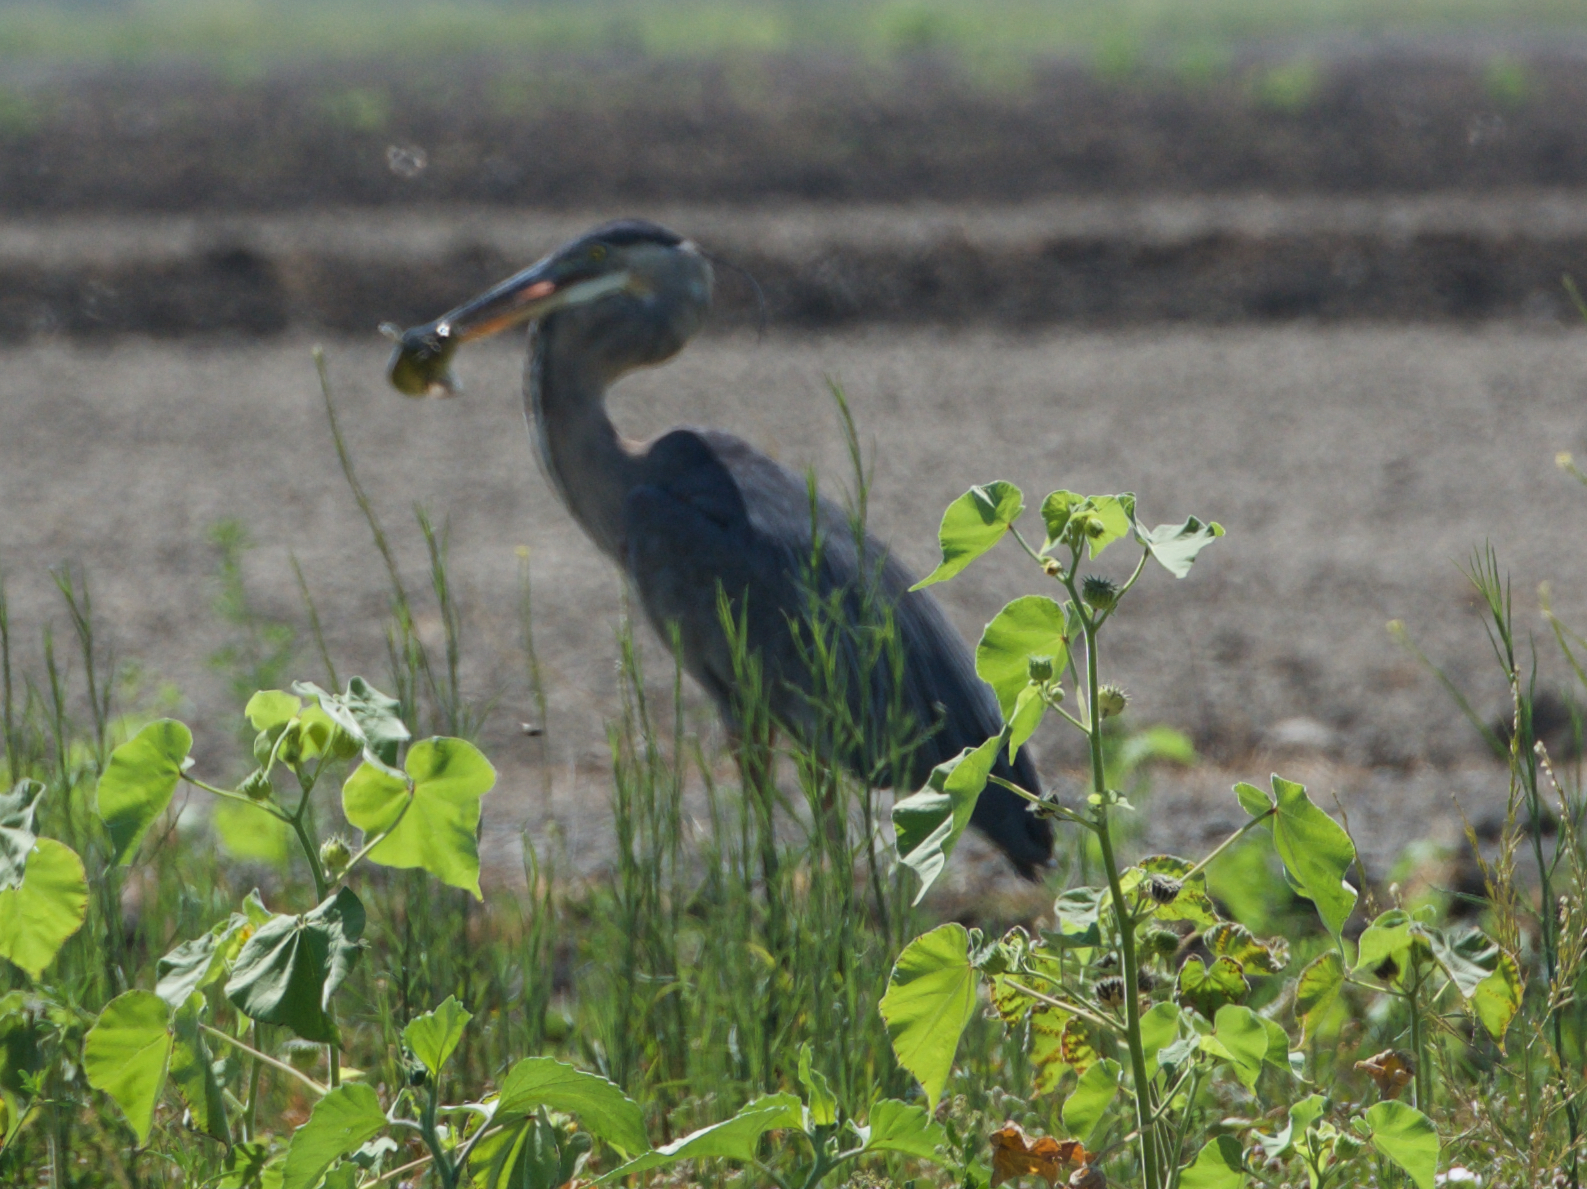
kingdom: Animalia
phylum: Chordata
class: Aves
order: Pelecaniformes
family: Ardeidae
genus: Ardea
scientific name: Ardea herodias
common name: Great blue heron
